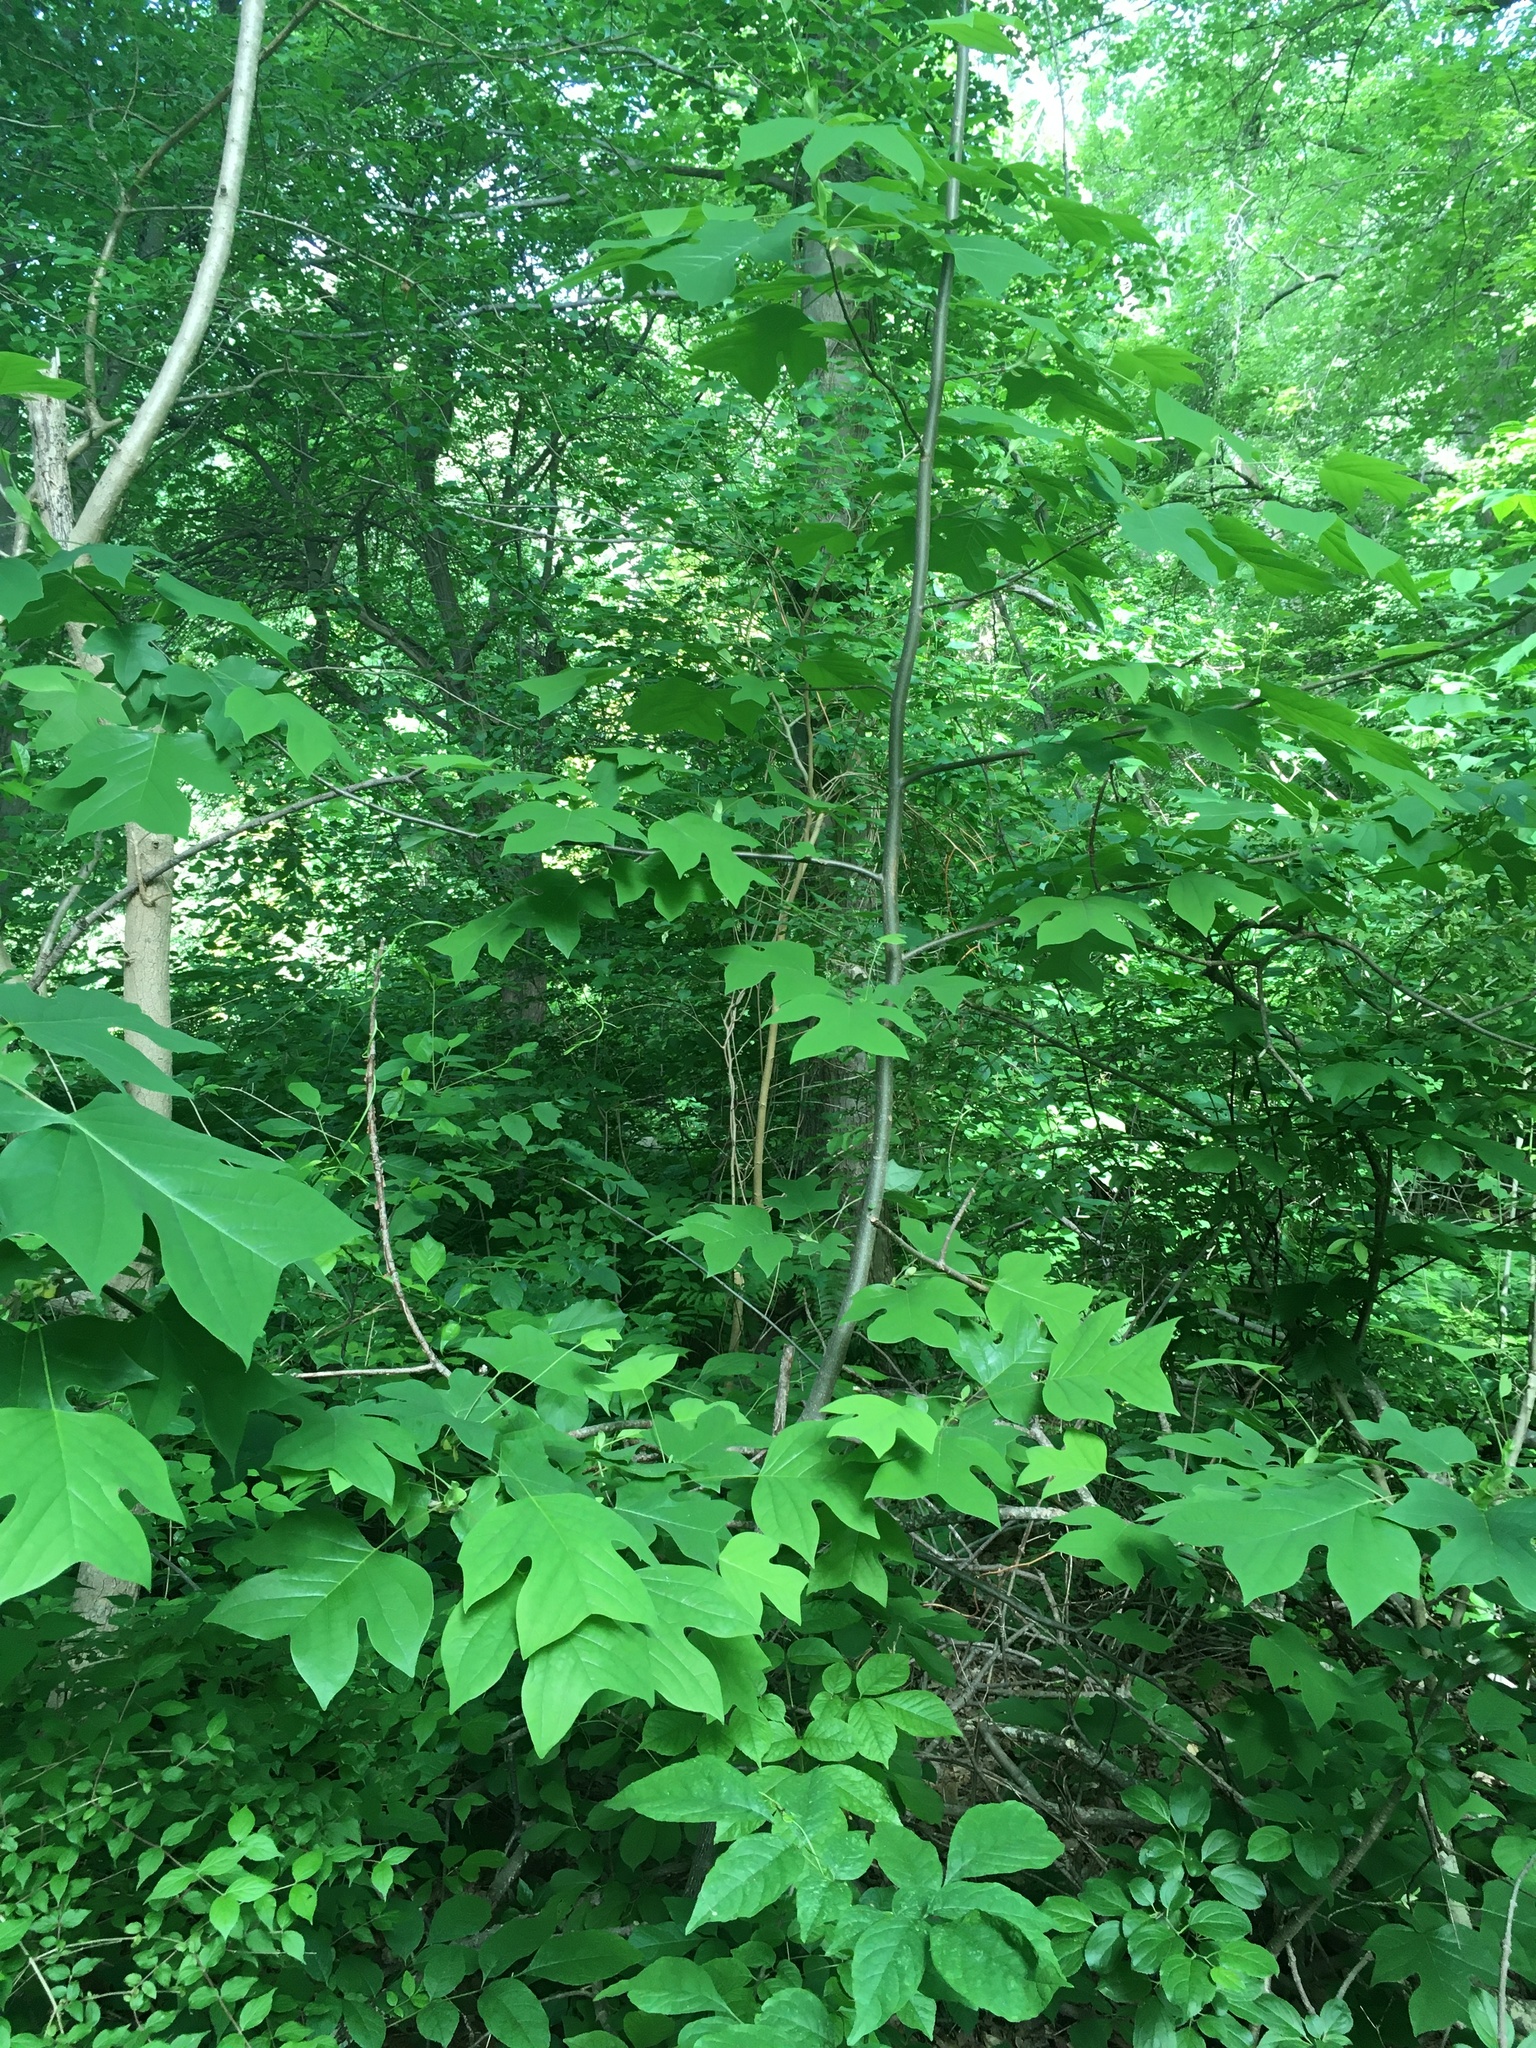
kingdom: Plantae
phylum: Tracheophyta
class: Magnoliopsida
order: Magnoliales
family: Magnoliaceae
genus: Liriodendron
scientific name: Liriodendron tulipifera
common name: Tulip tree
